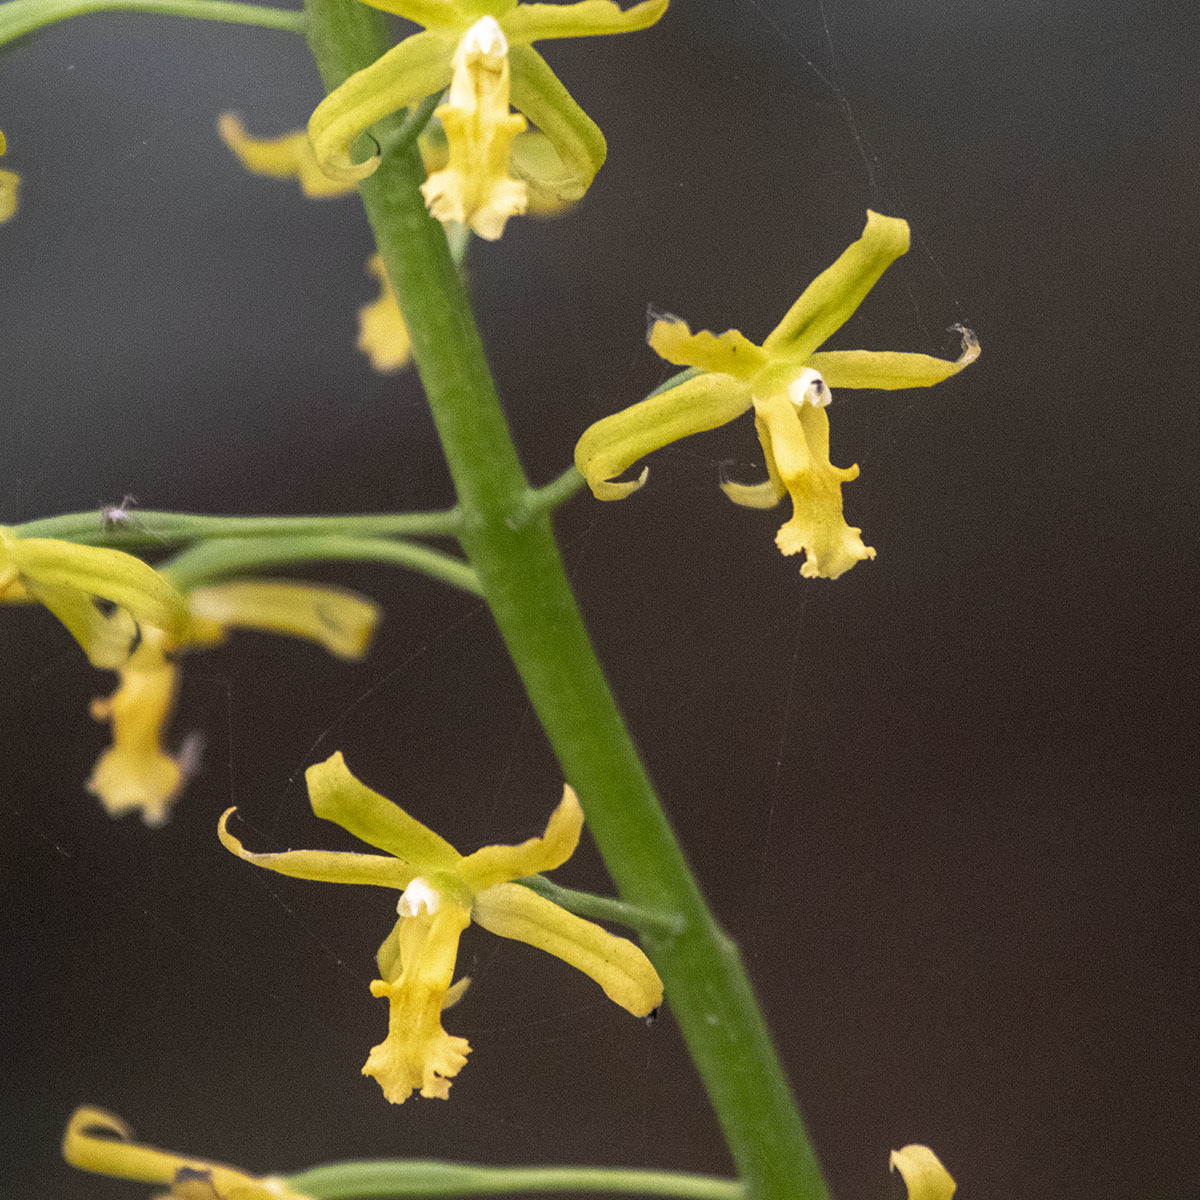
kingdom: Plantae
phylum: Tracheophyta
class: Liliopsida
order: Asparagales
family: Orchidaceae
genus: Calanthe
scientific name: Calanthe obcordata
